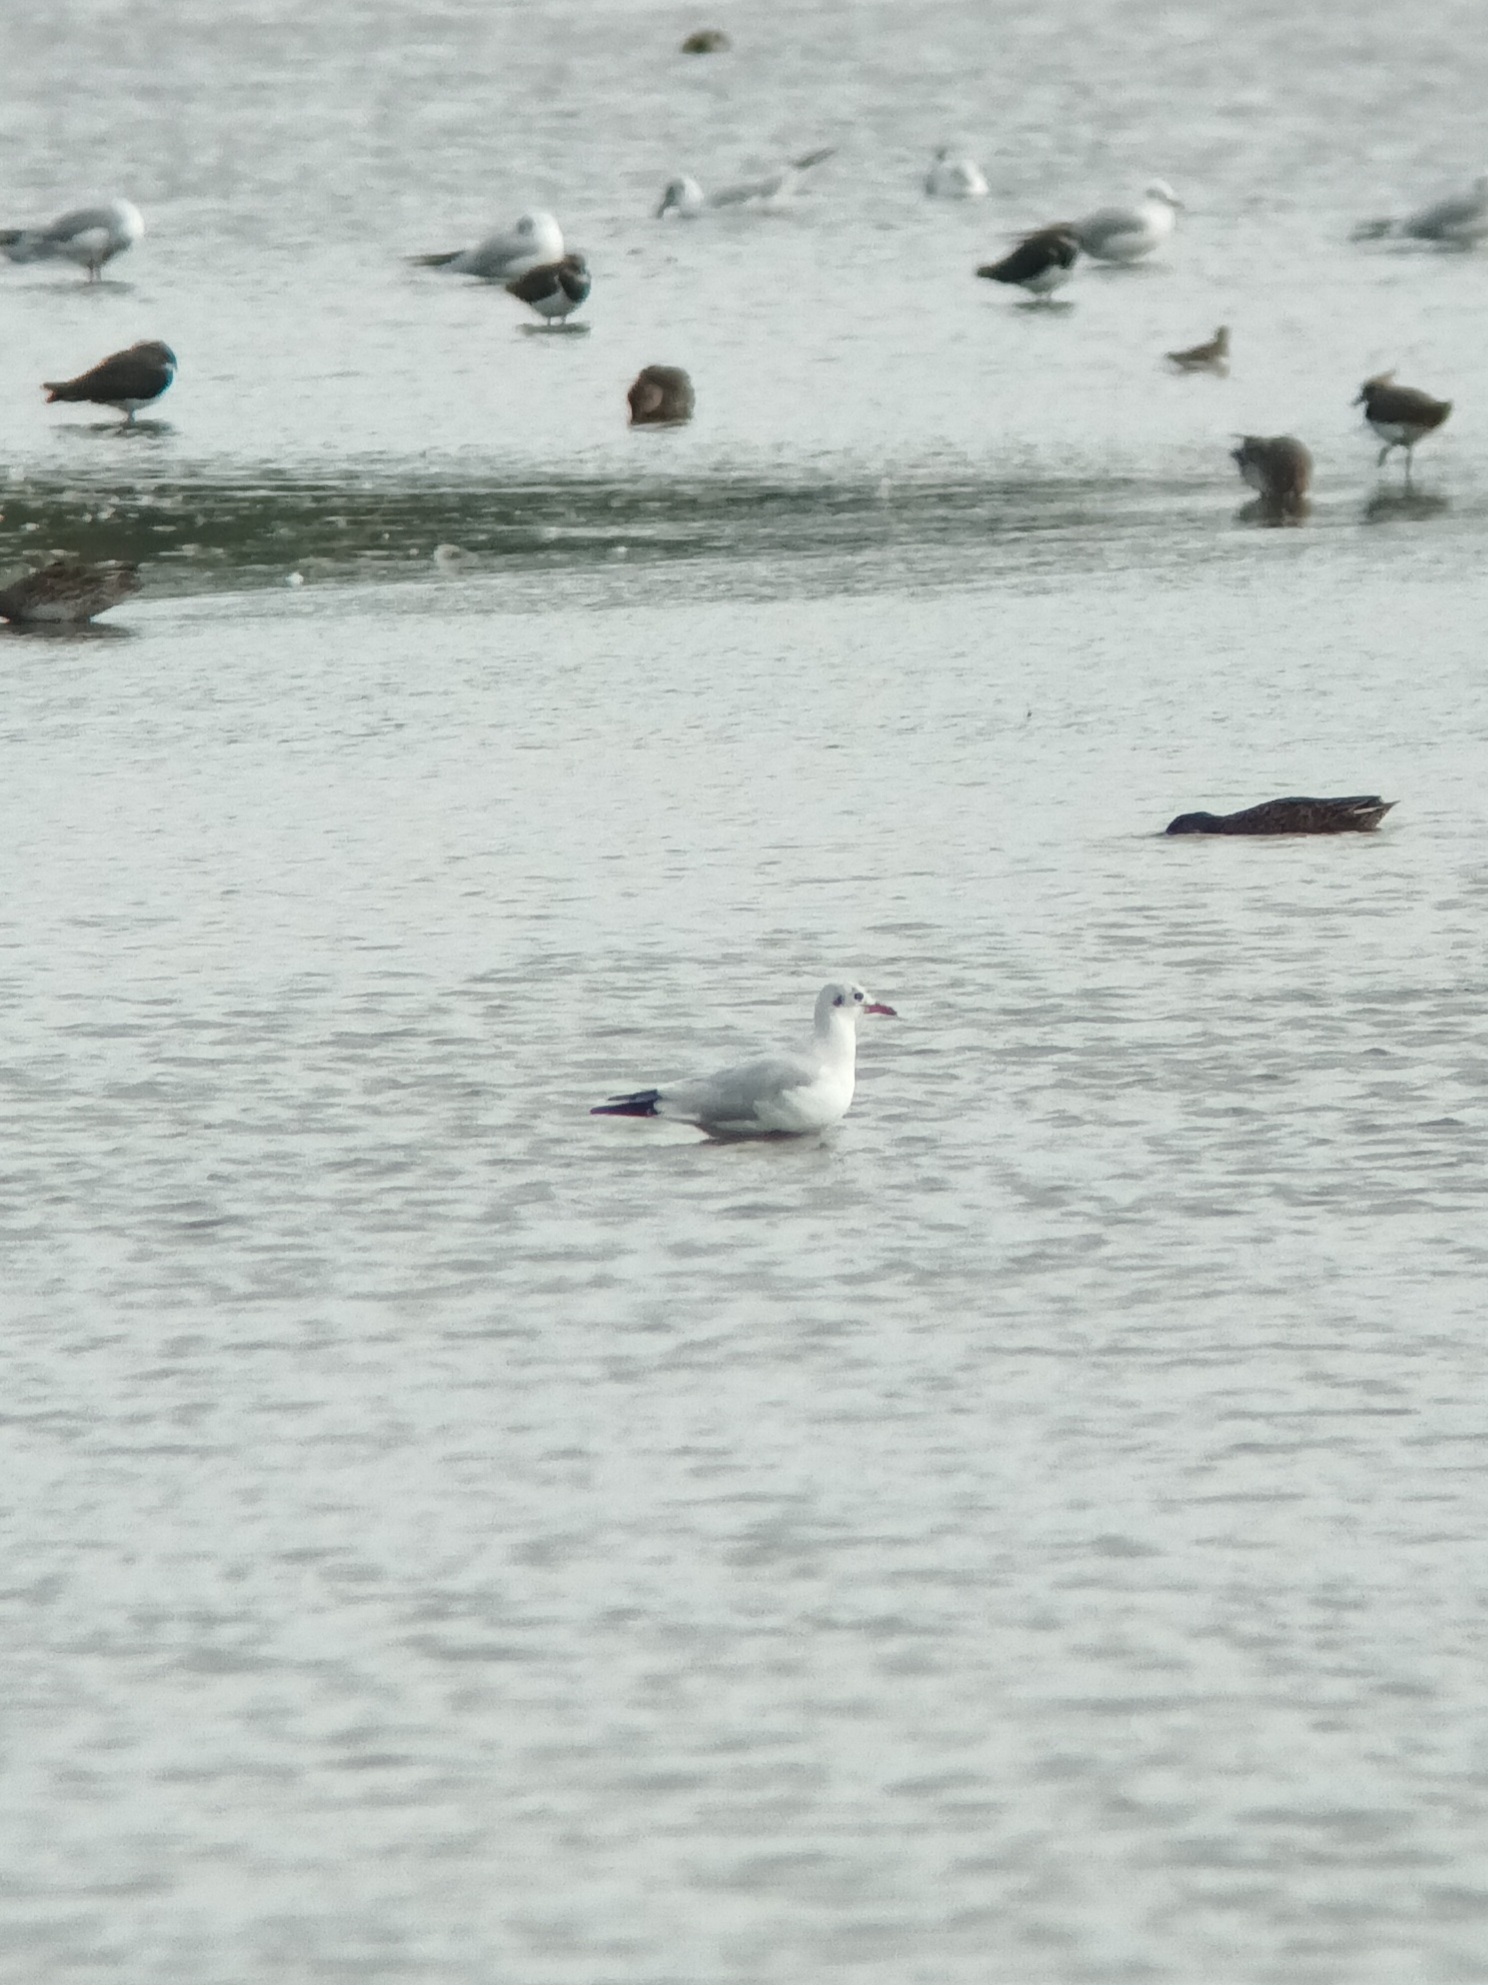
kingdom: Animalia
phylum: Chordata
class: Aves
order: Charadriiformes
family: Laridae
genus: Chroicocephalus
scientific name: Chroicocephalus ridibundus
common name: Black-headed gull
